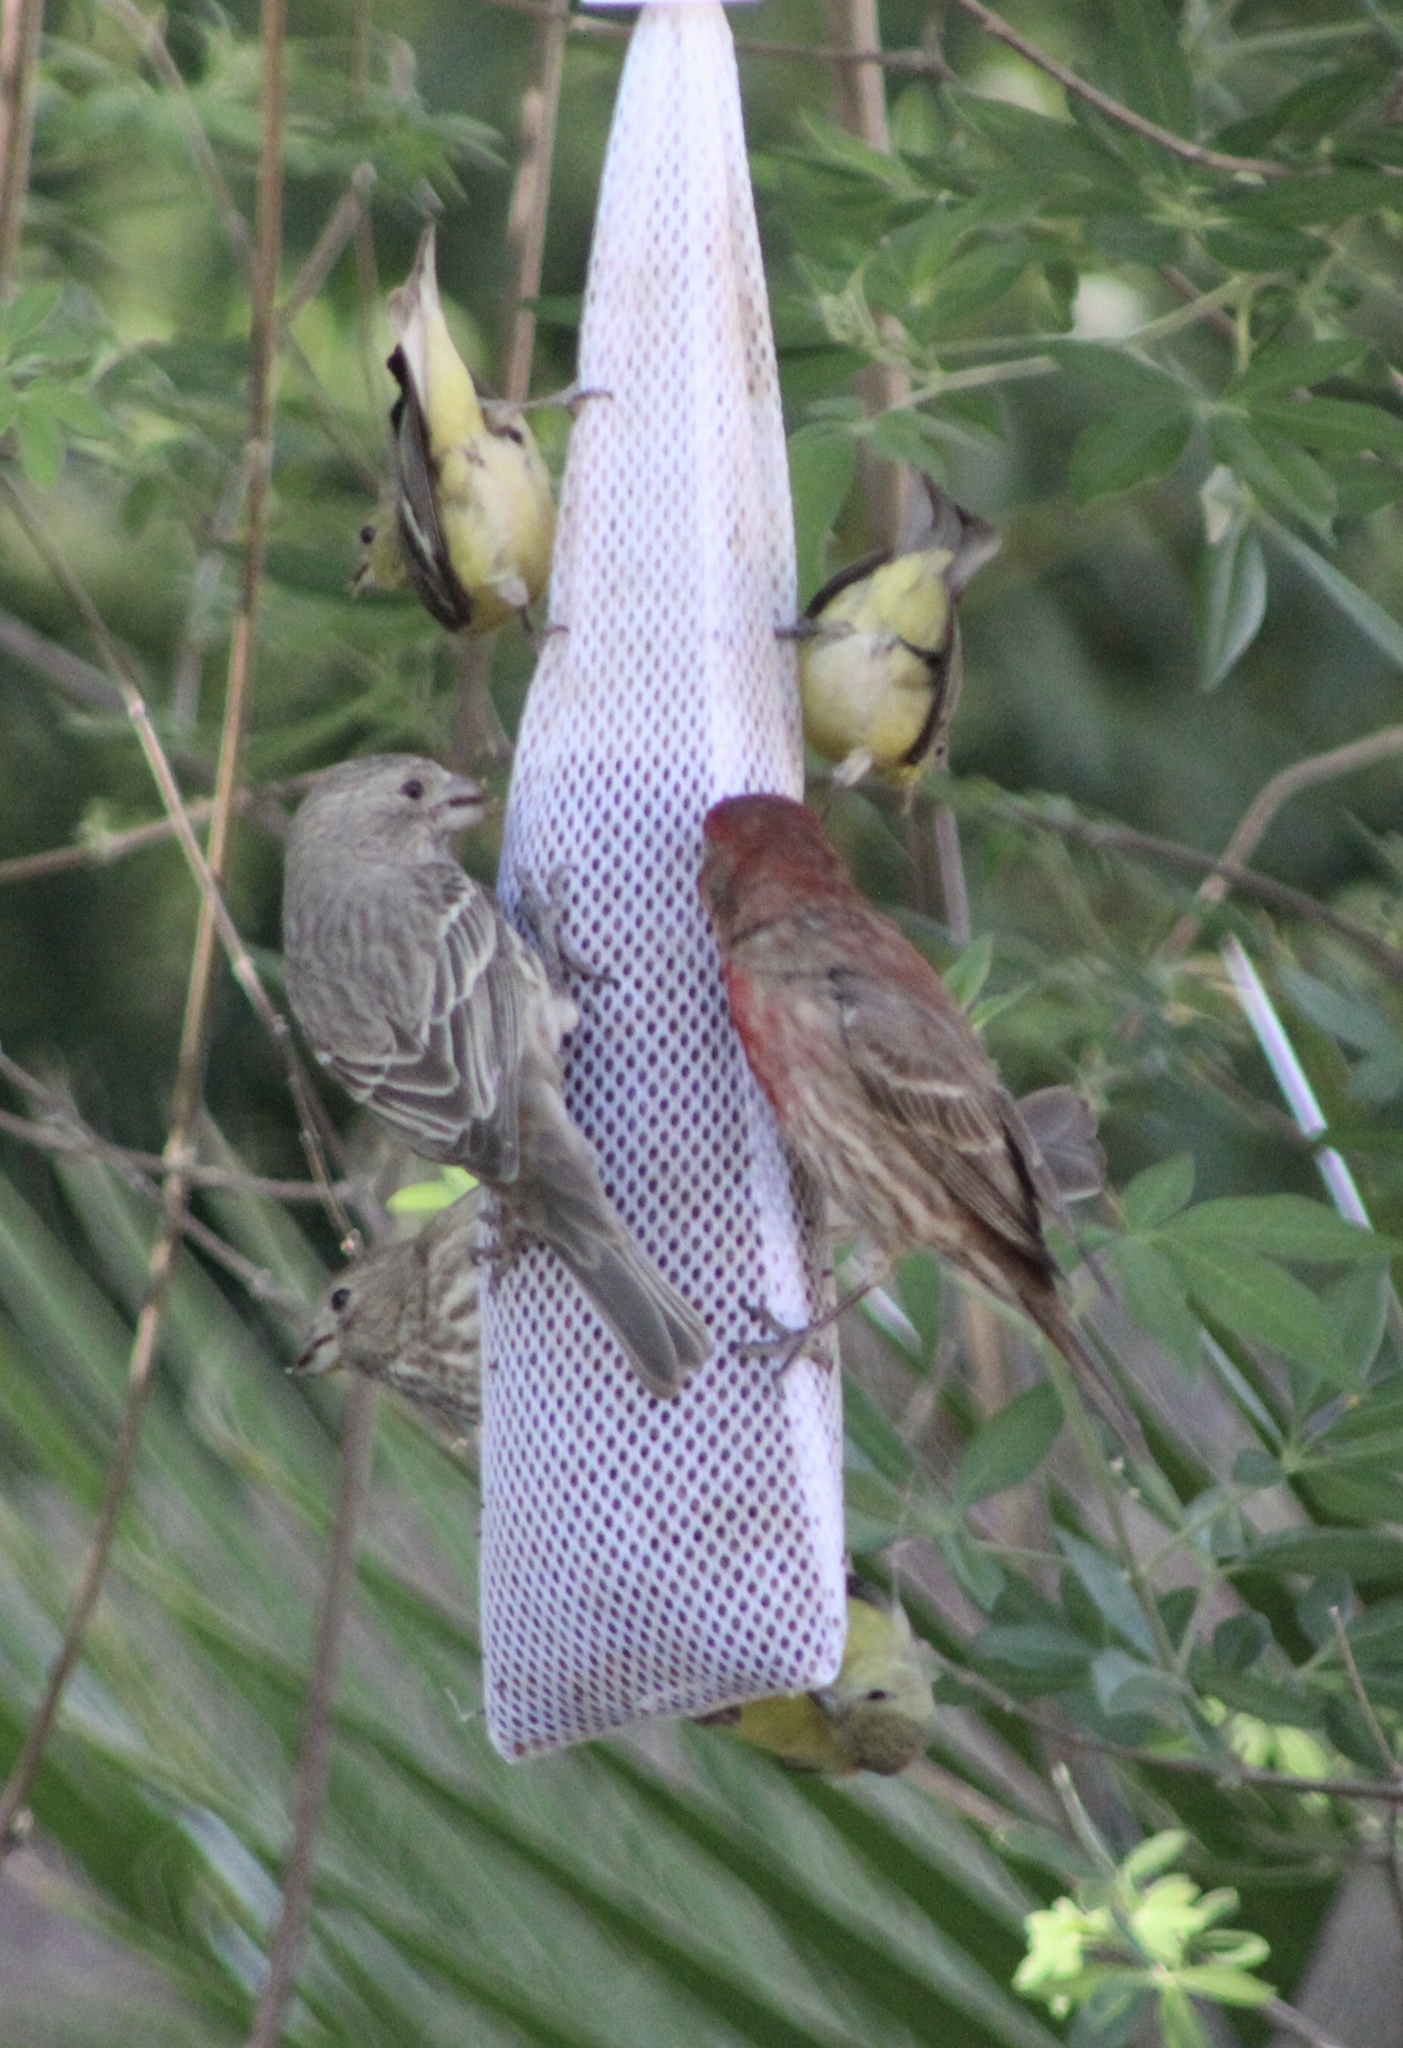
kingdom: Animalia
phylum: Chordata
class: Aves
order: Passeriformes
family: Fringillidae
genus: Haemorhous
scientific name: Haemorhous mexicanus
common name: House finch
